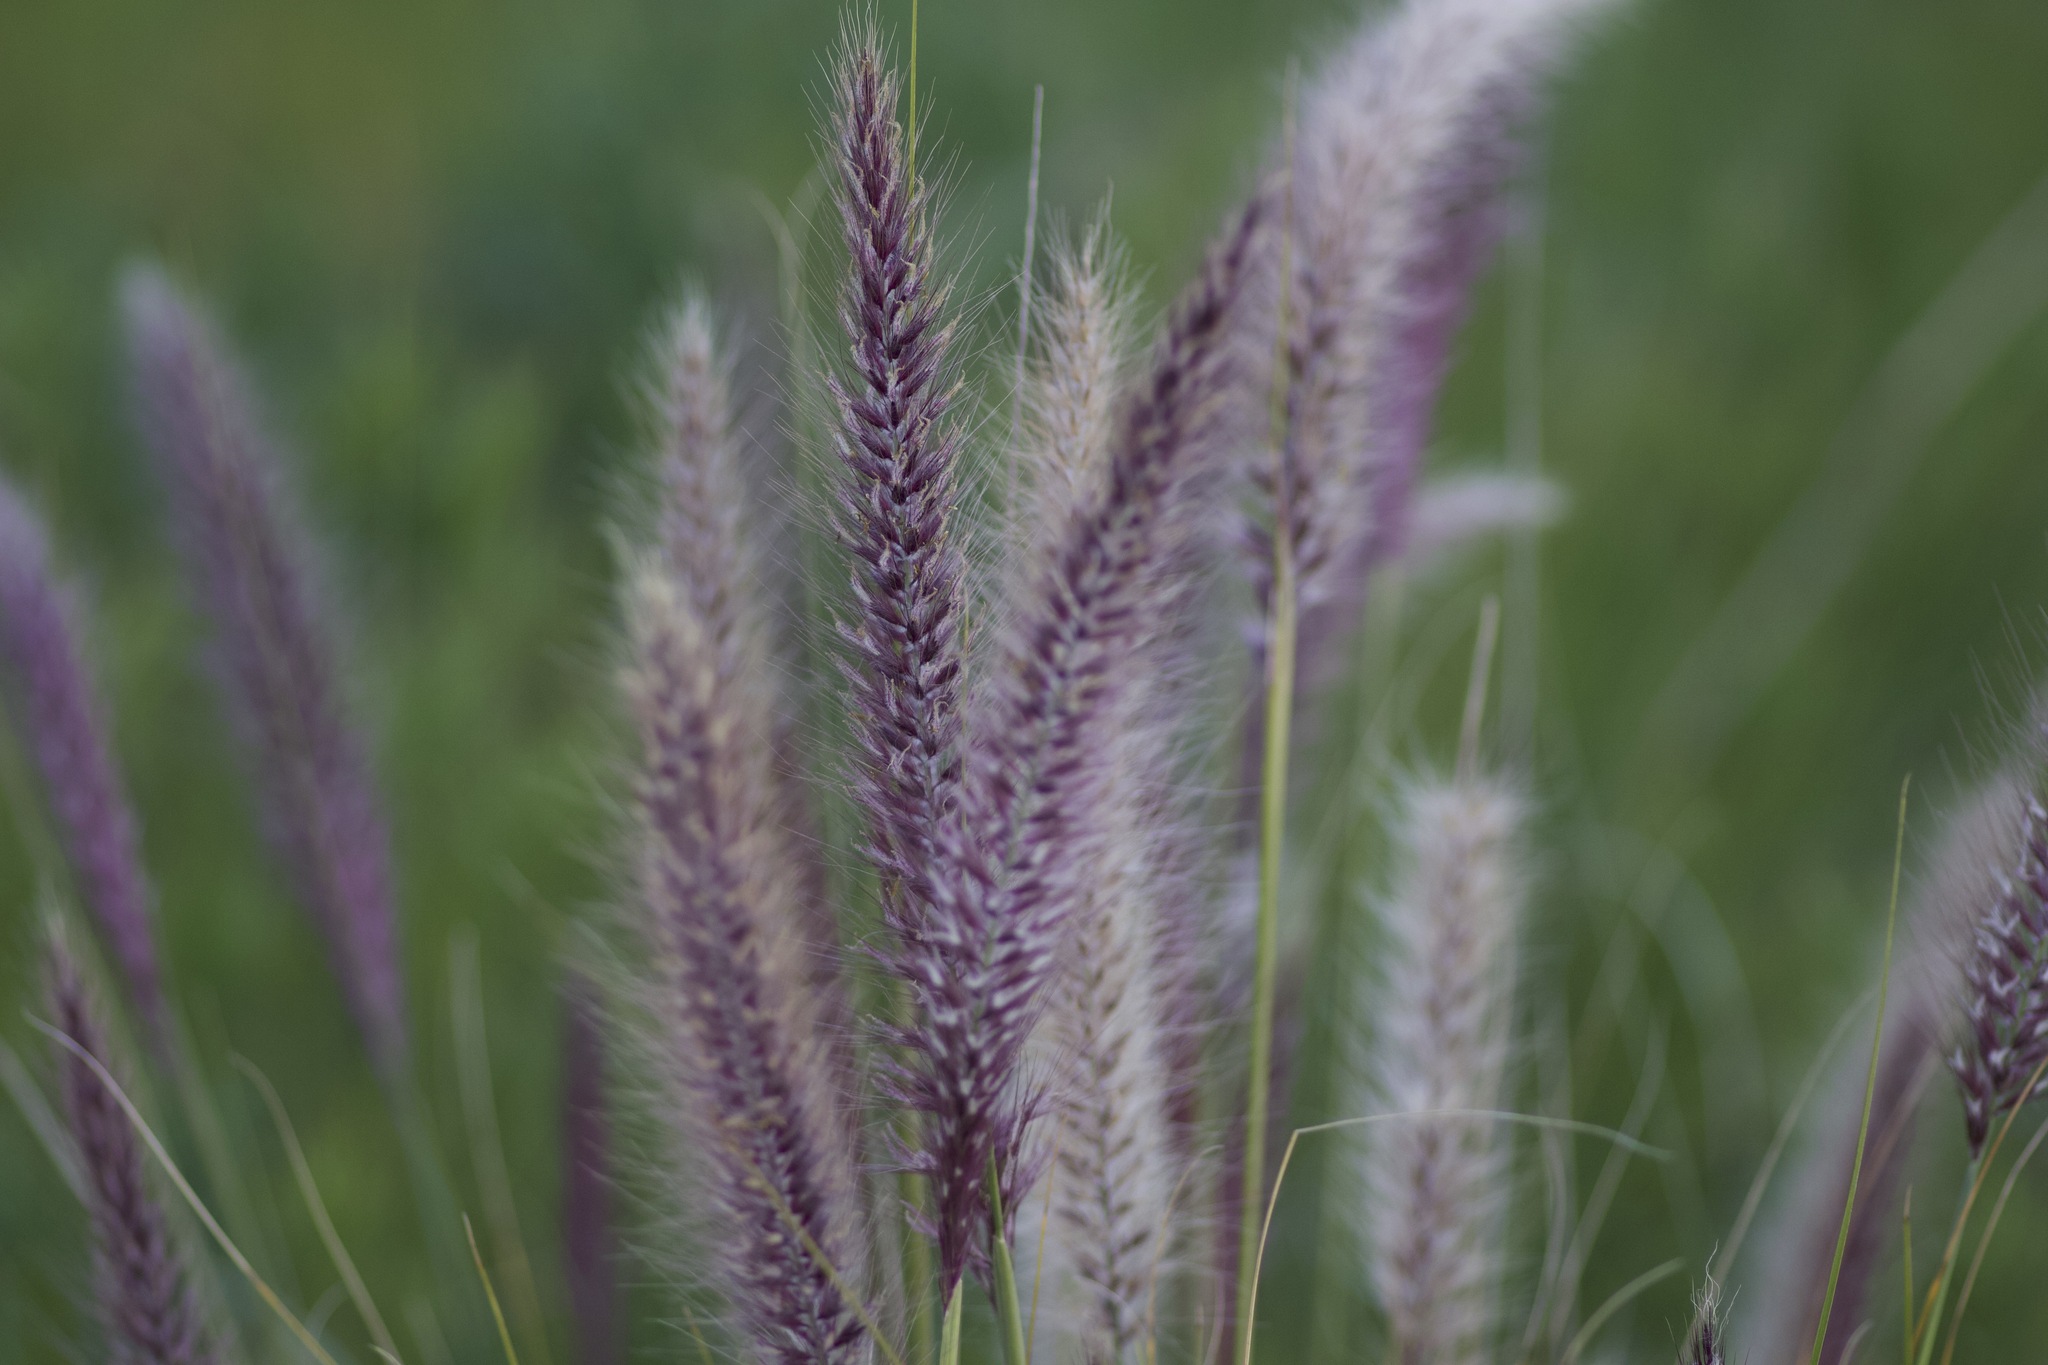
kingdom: Plantae
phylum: Tracheophyta
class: Liliopsida
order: Poales
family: Poaceae
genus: Cenchrus
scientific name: Cenchrus setaceus
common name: Crimson fountaingrass
